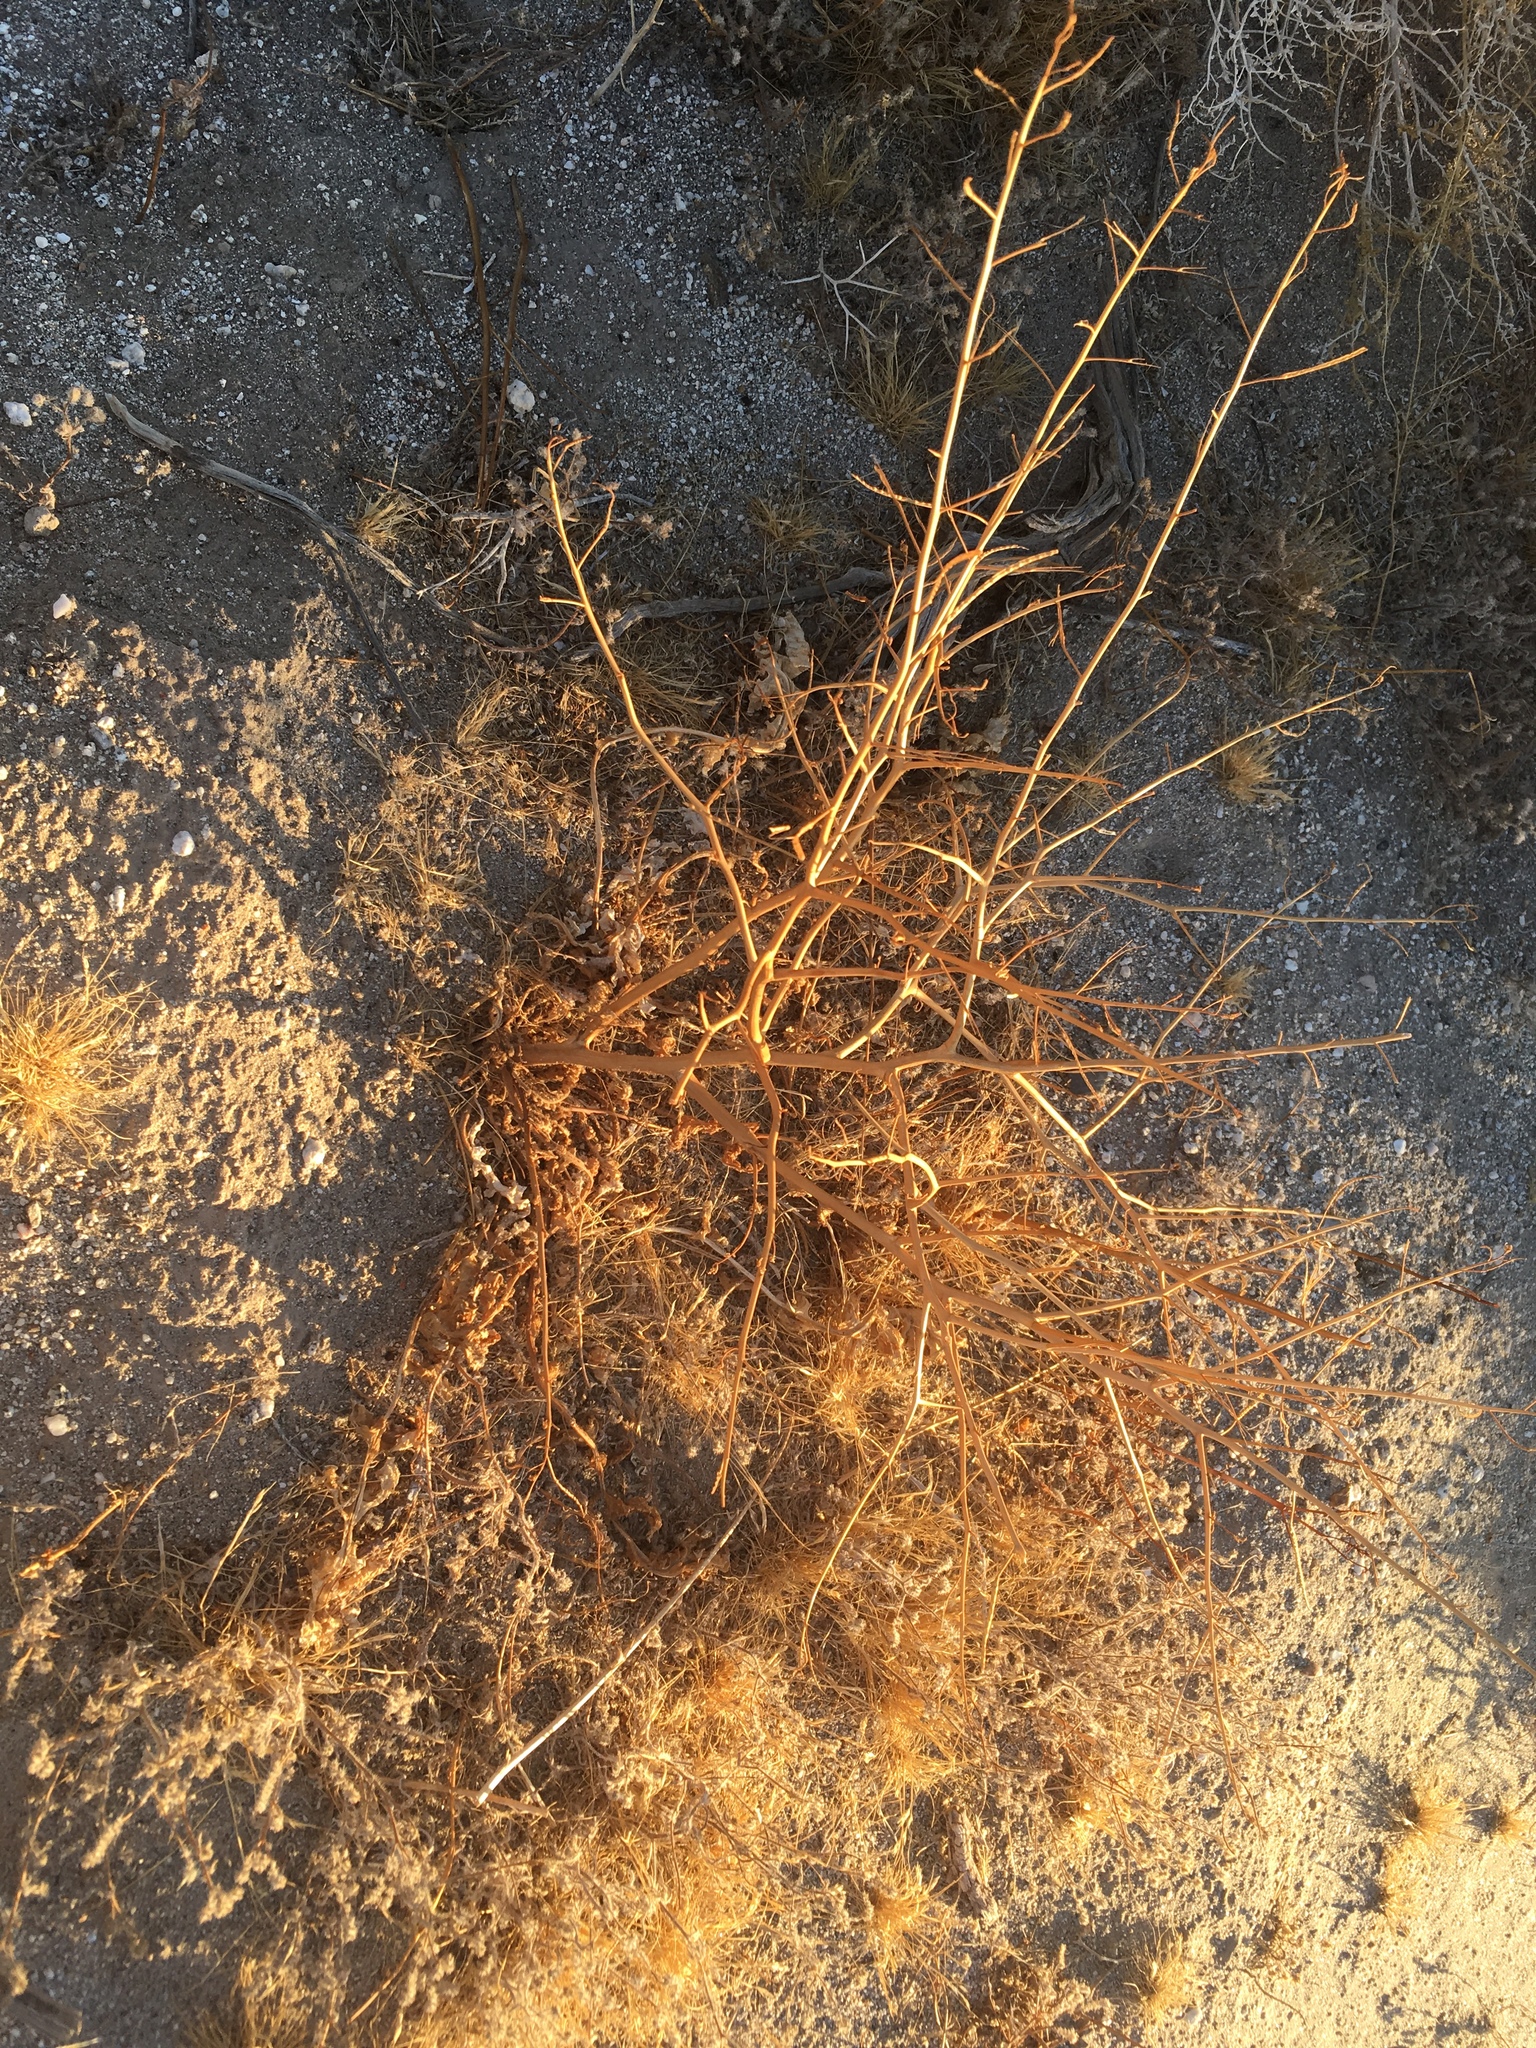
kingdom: Plantae
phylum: Tracheophyta
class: Magnoliopsida
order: Brassicales
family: Brassicaceae
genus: Brassica
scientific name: Brassica tournefortii
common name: Pale cabbage
